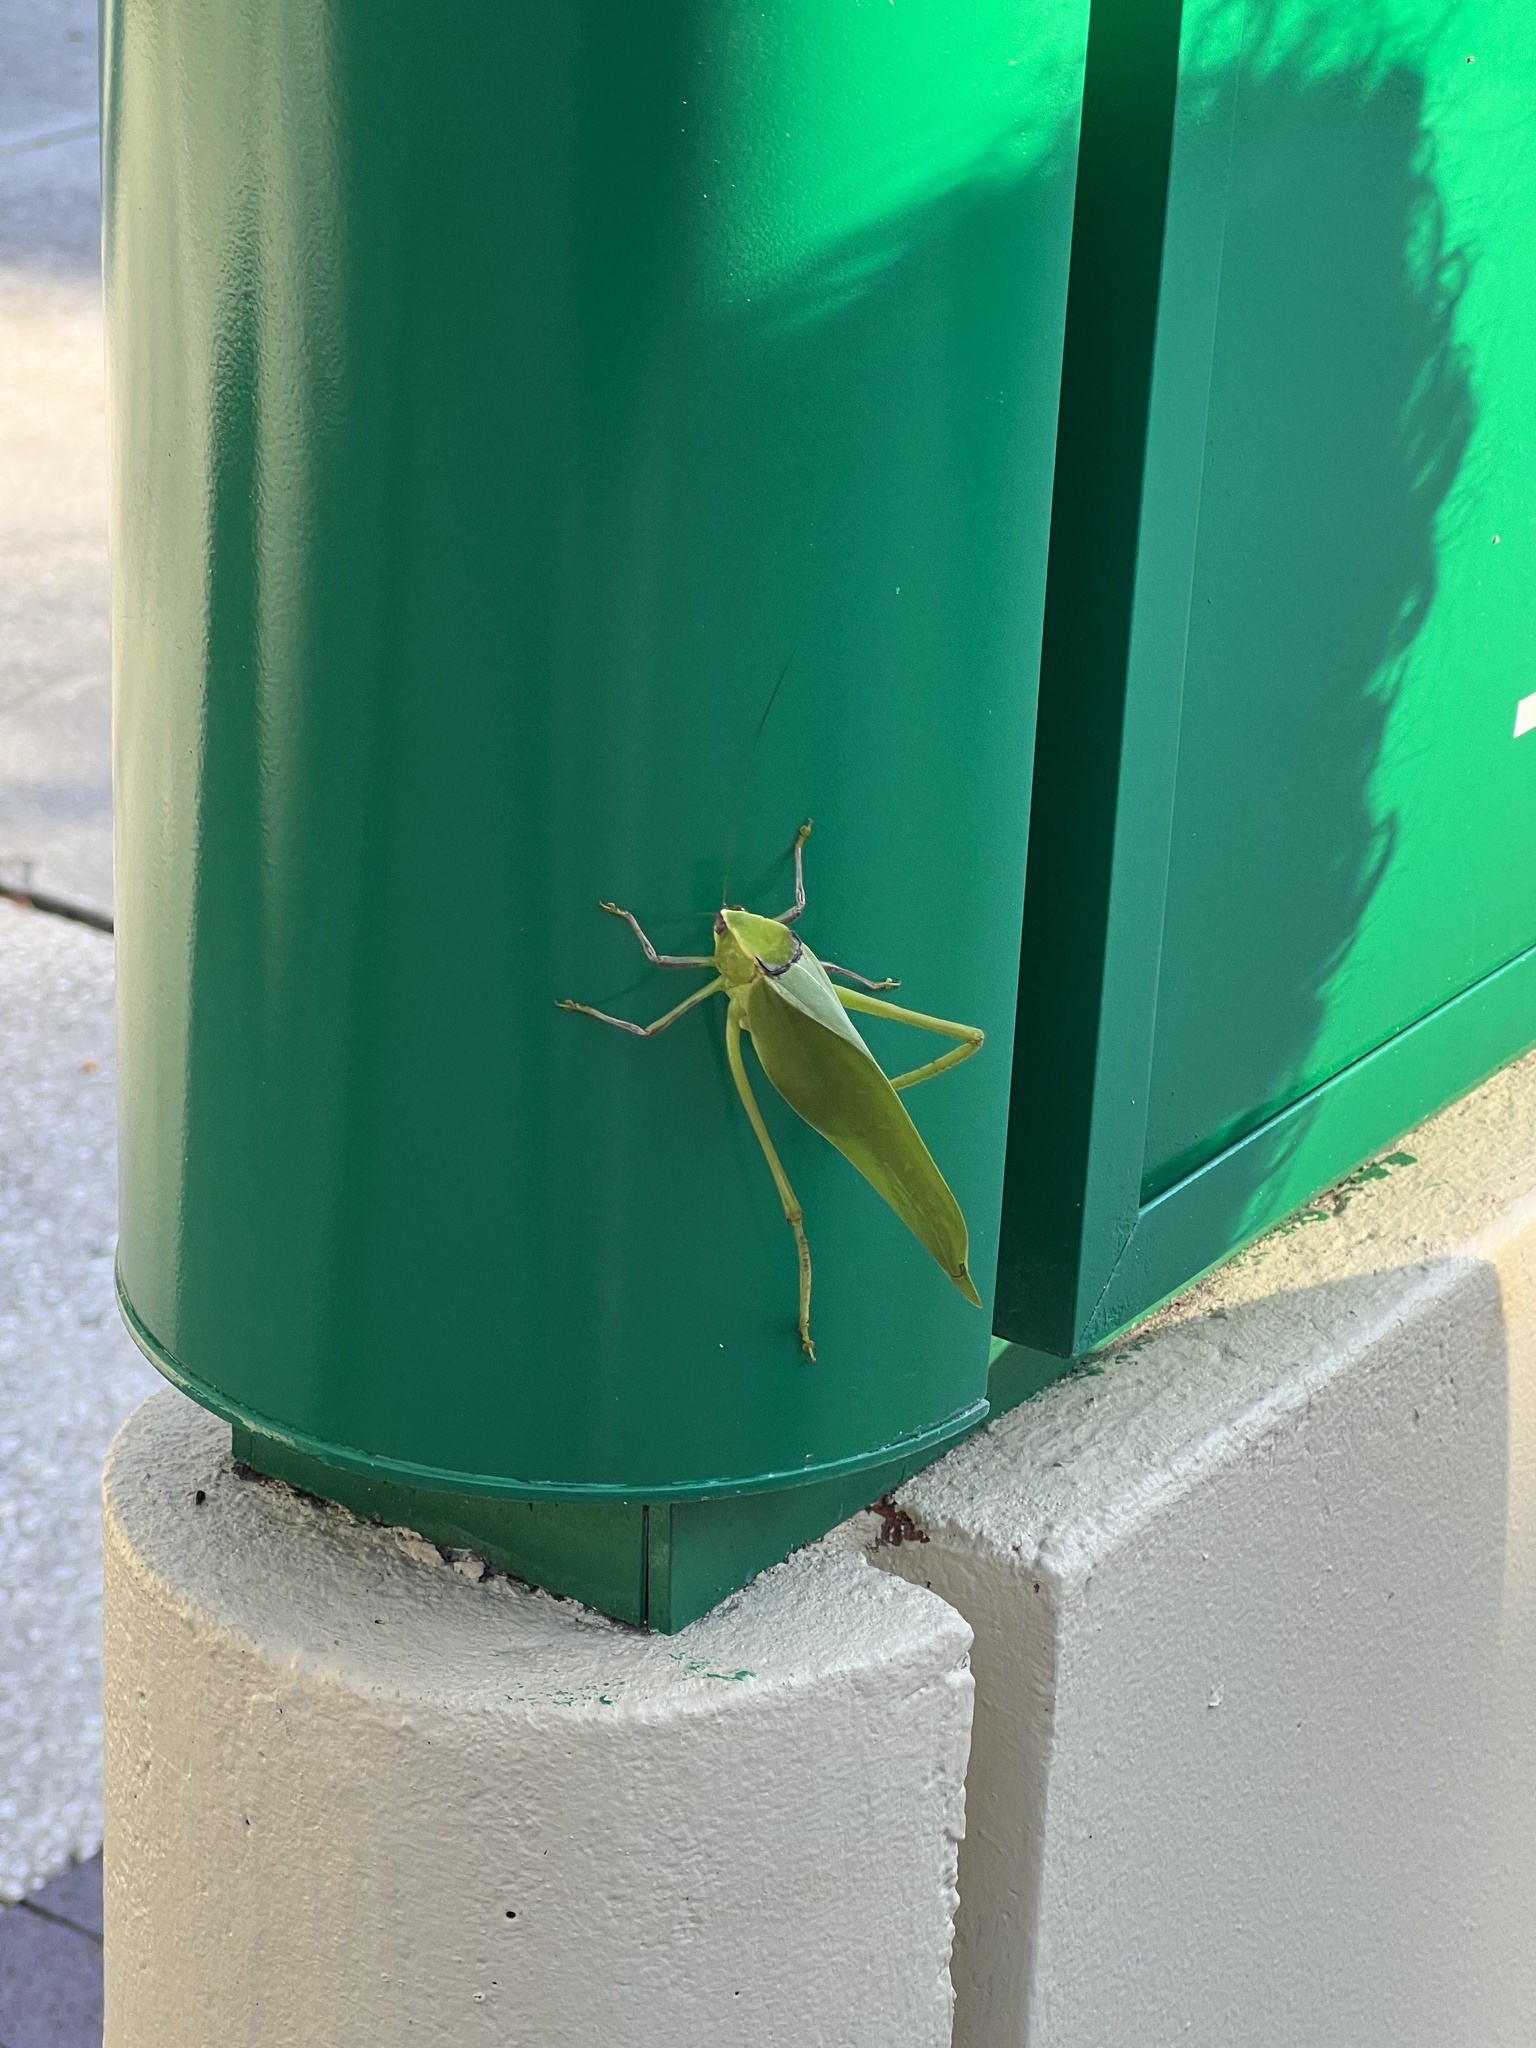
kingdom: Animalia
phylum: Arthropoda
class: Insecta
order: Orthoptera
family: Tettigoniidae
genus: Stilpnochlora
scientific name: Stilpnochlora couloniana
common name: Giant katydid
